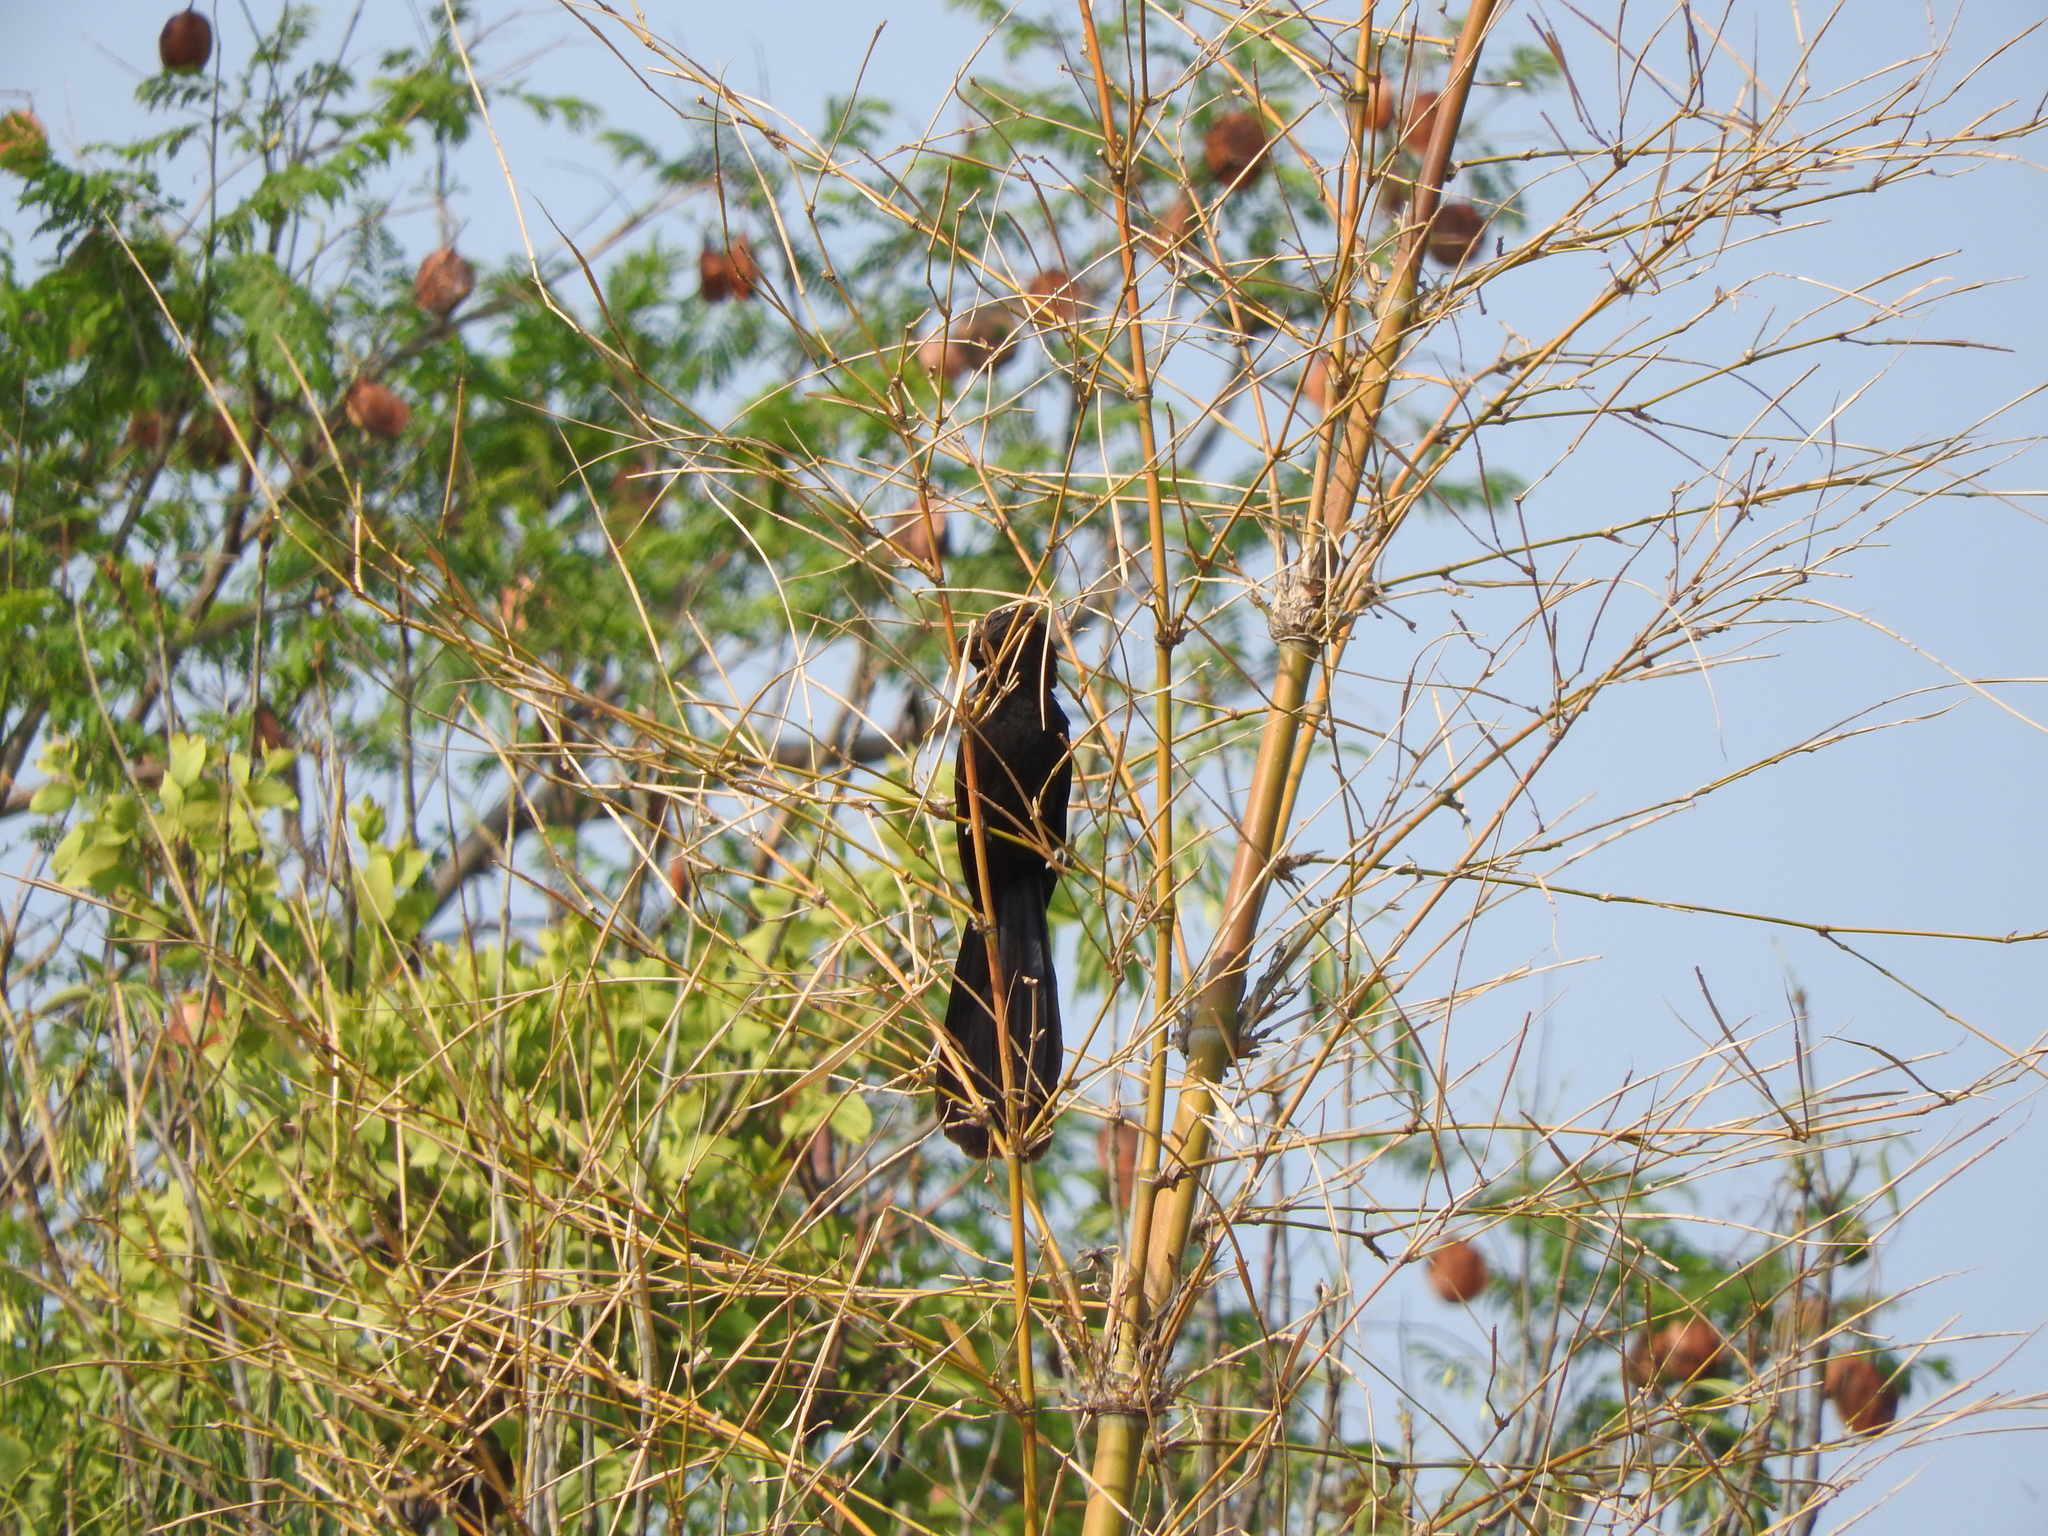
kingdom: Animalia
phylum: Chordata
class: Aves
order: Cuculiformes
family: Cuculidae
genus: Crotophaga
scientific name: Crotophaga sulcirostris
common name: Groove-billed ani
